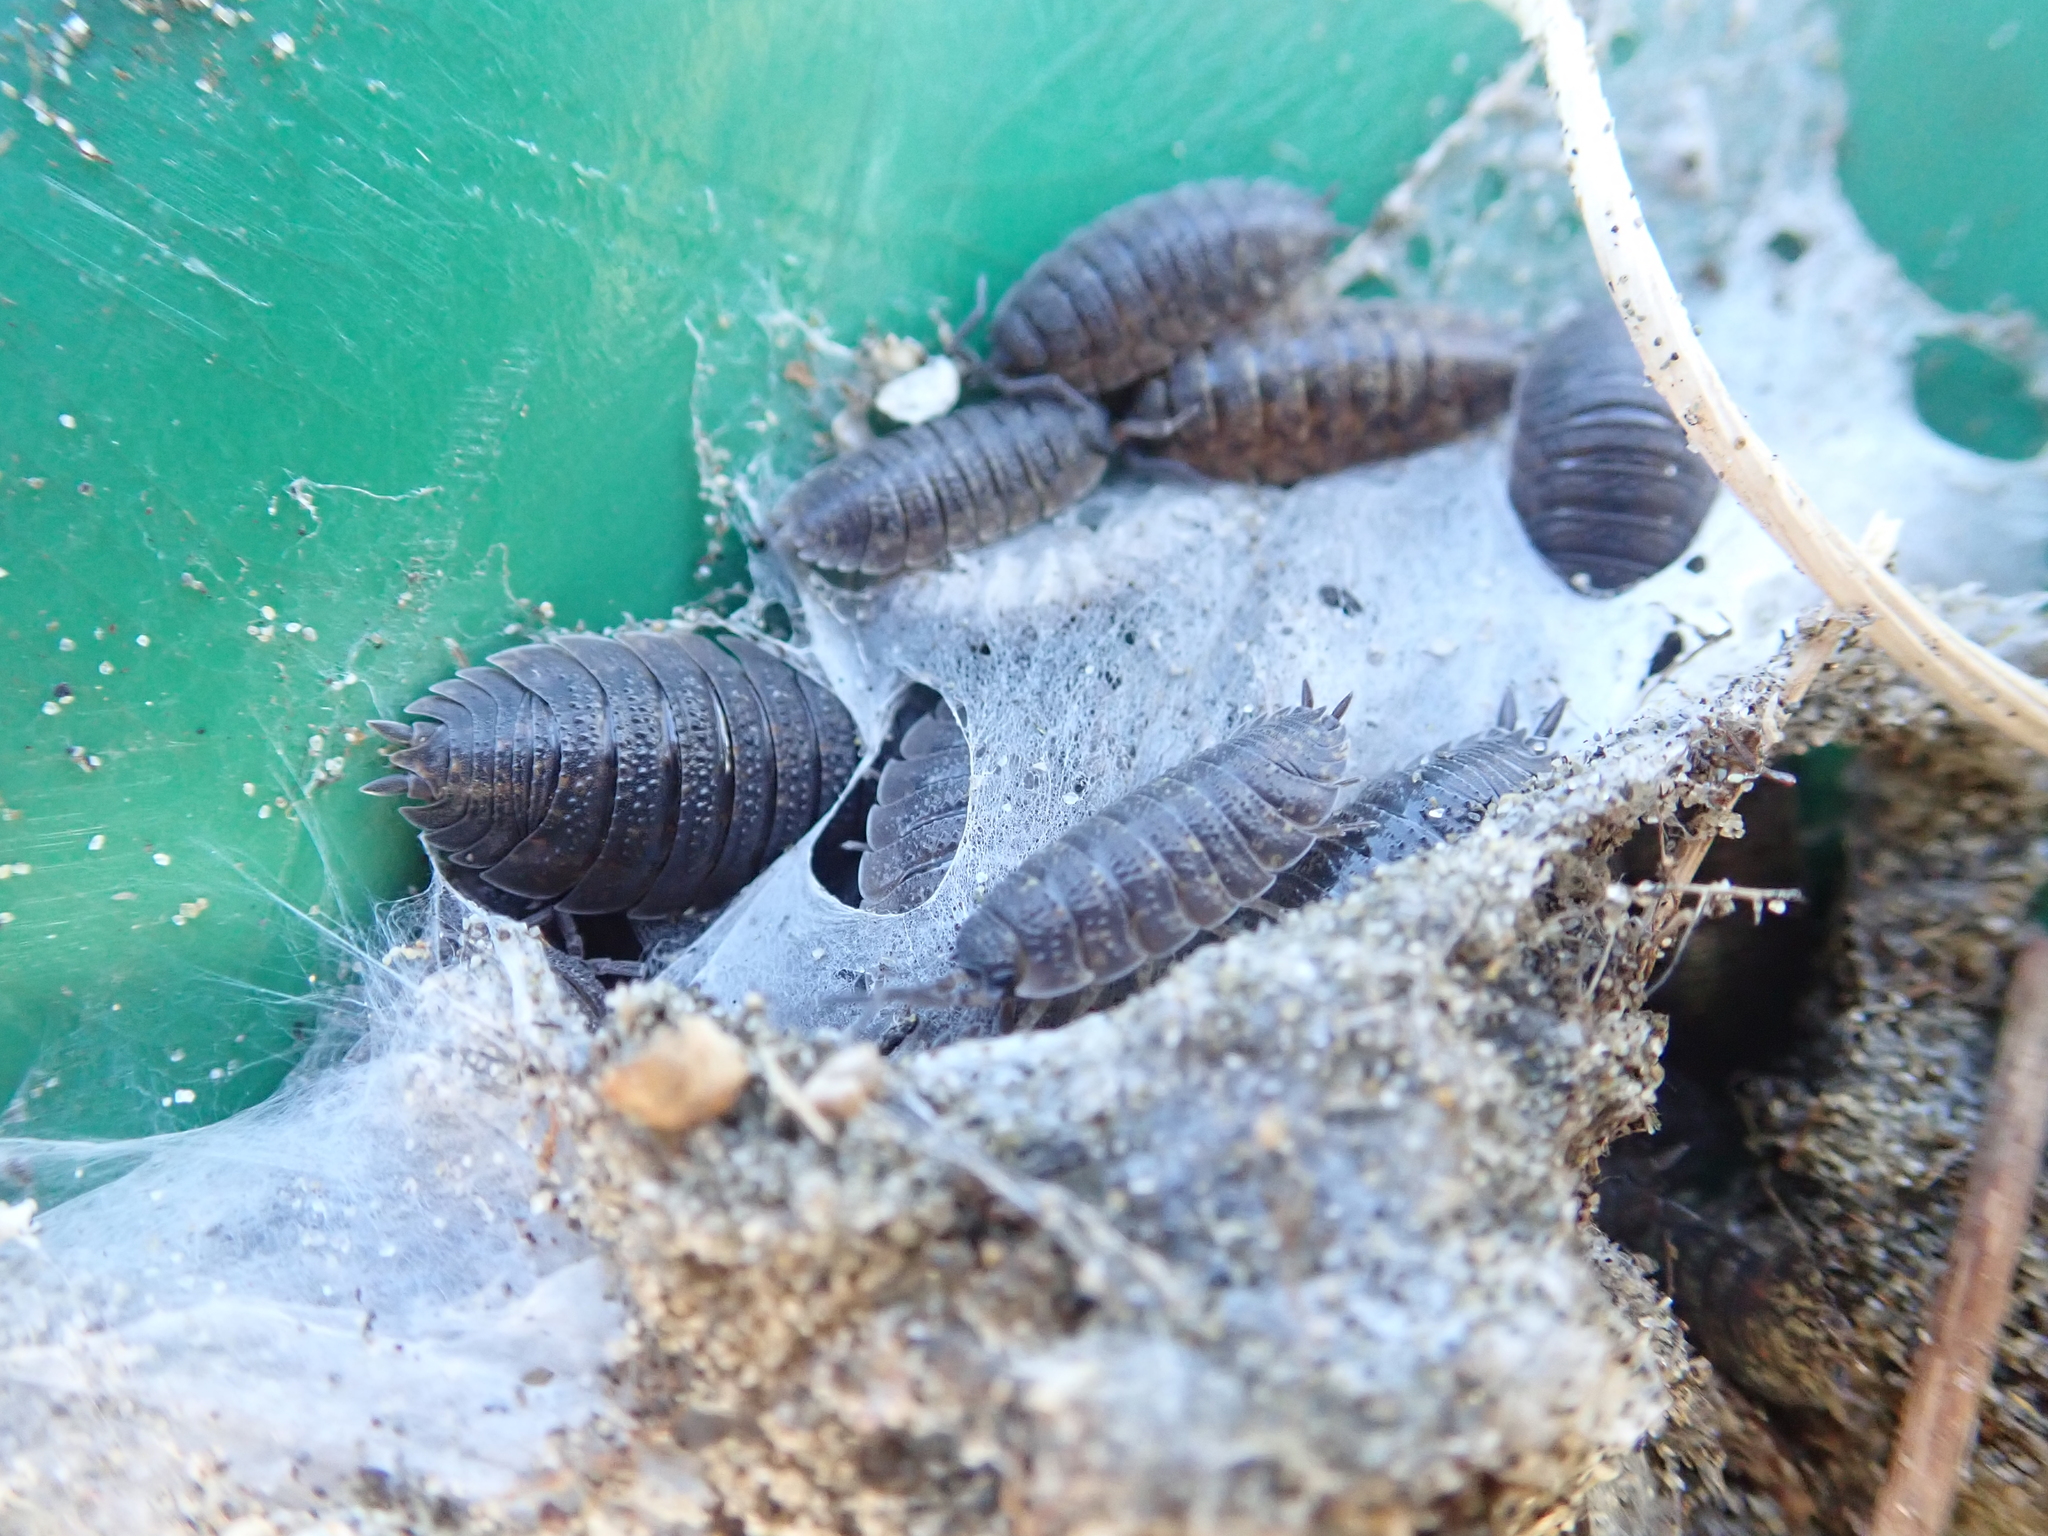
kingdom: Animalia
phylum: Arthropoda
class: Malacostraca
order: Isopoda
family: Porcellionidae
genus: Porcellio
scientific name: Porcellio scaber
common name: Common rough woodlouse
